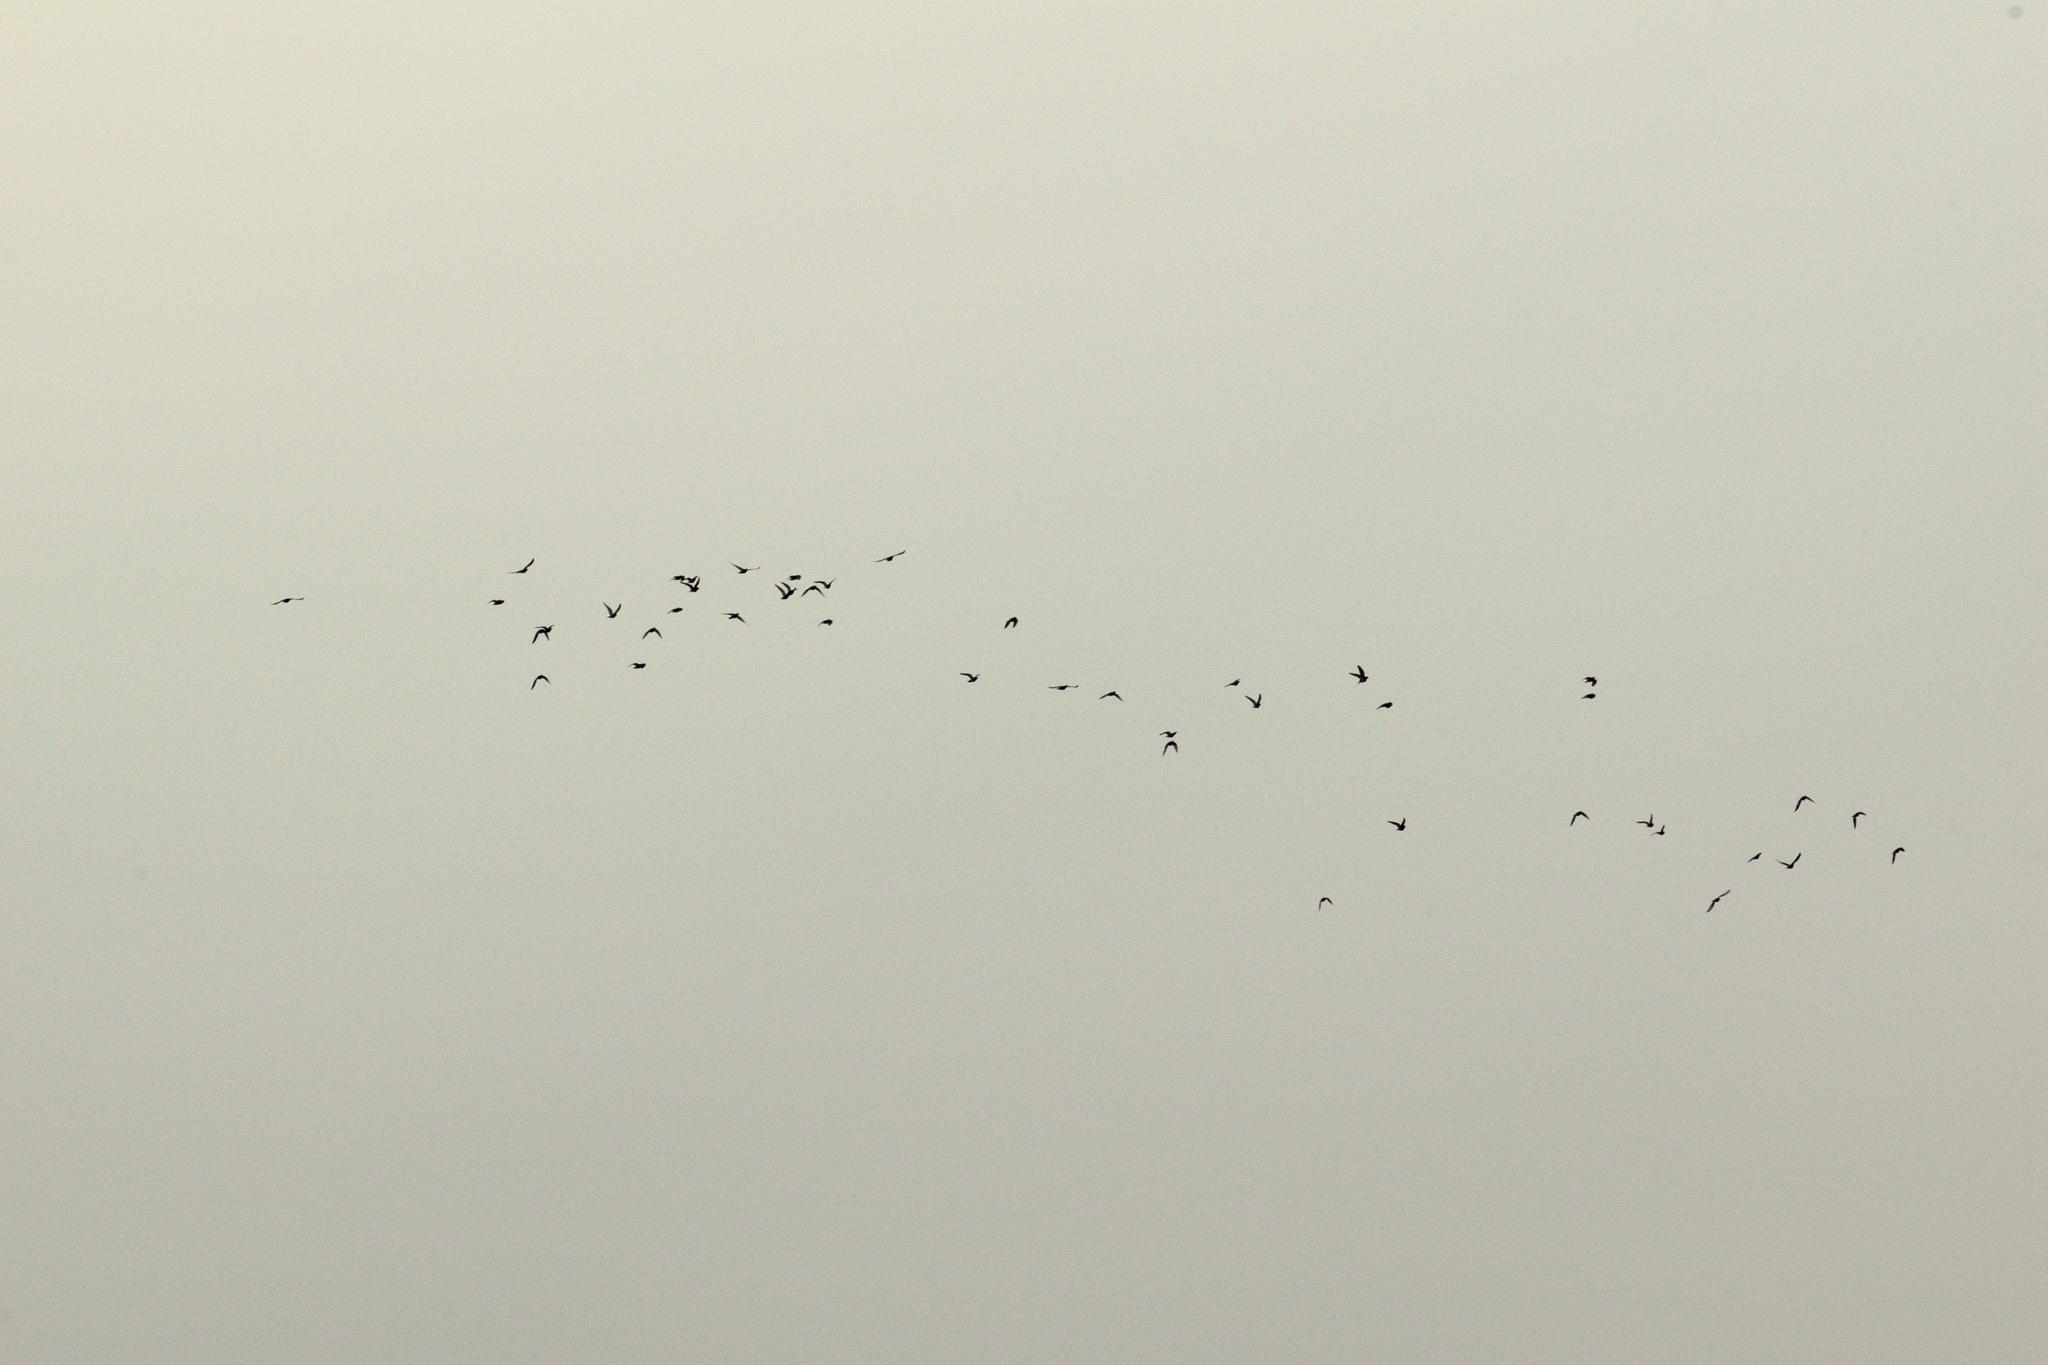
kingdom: Animalia
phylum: Chordata
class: Aves
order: Columbiformes
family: Columbidae
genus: Columba
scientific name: Columba livia
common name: Rock pigeon
